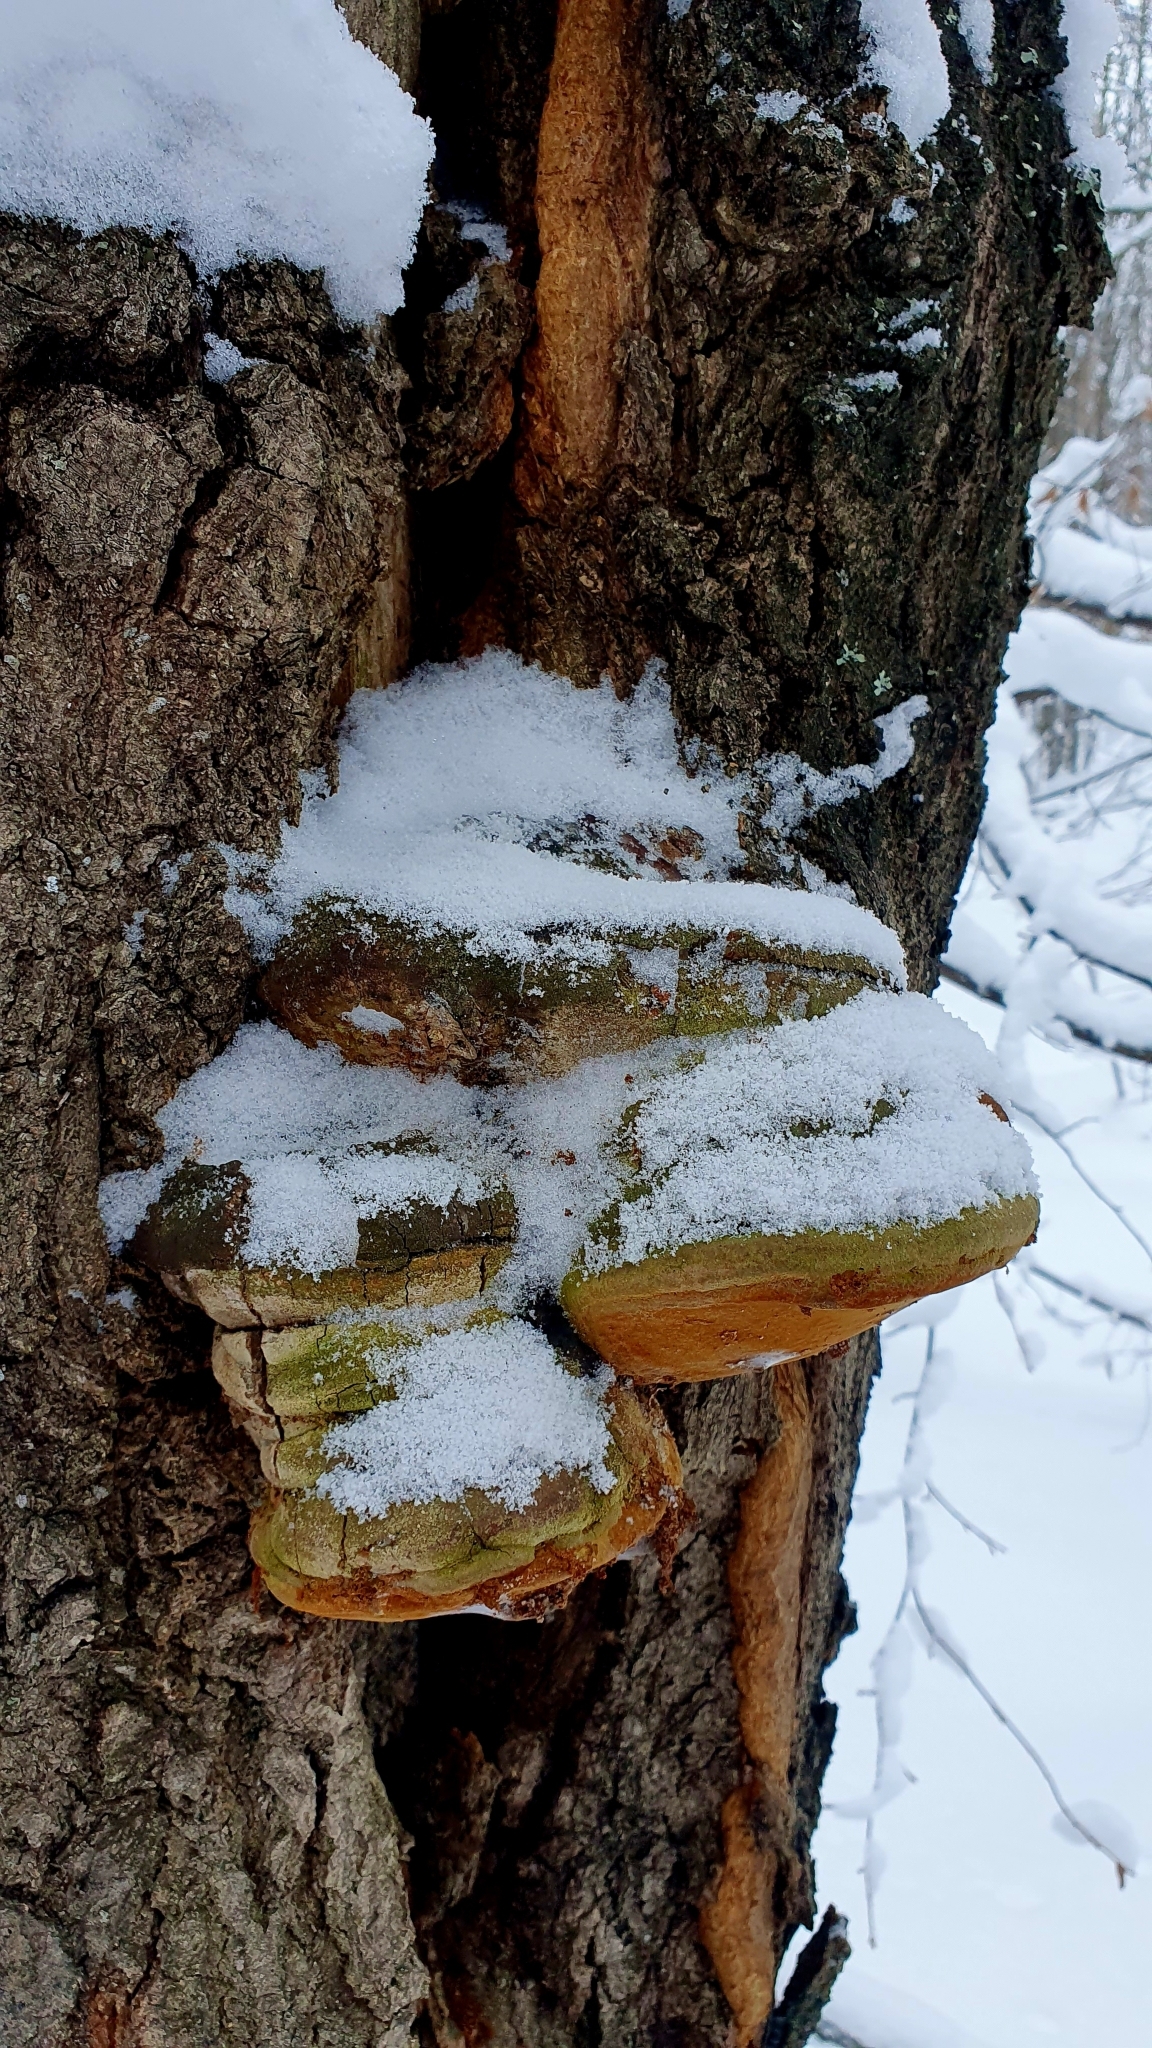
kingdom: Fungi
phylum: Basidiomycota
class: Agaricomycetes
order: Hymenochaetales
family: Hymenochaetaceae
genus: Fomitiporia
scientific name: Fomitiporia robusta
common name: Robust bracket
